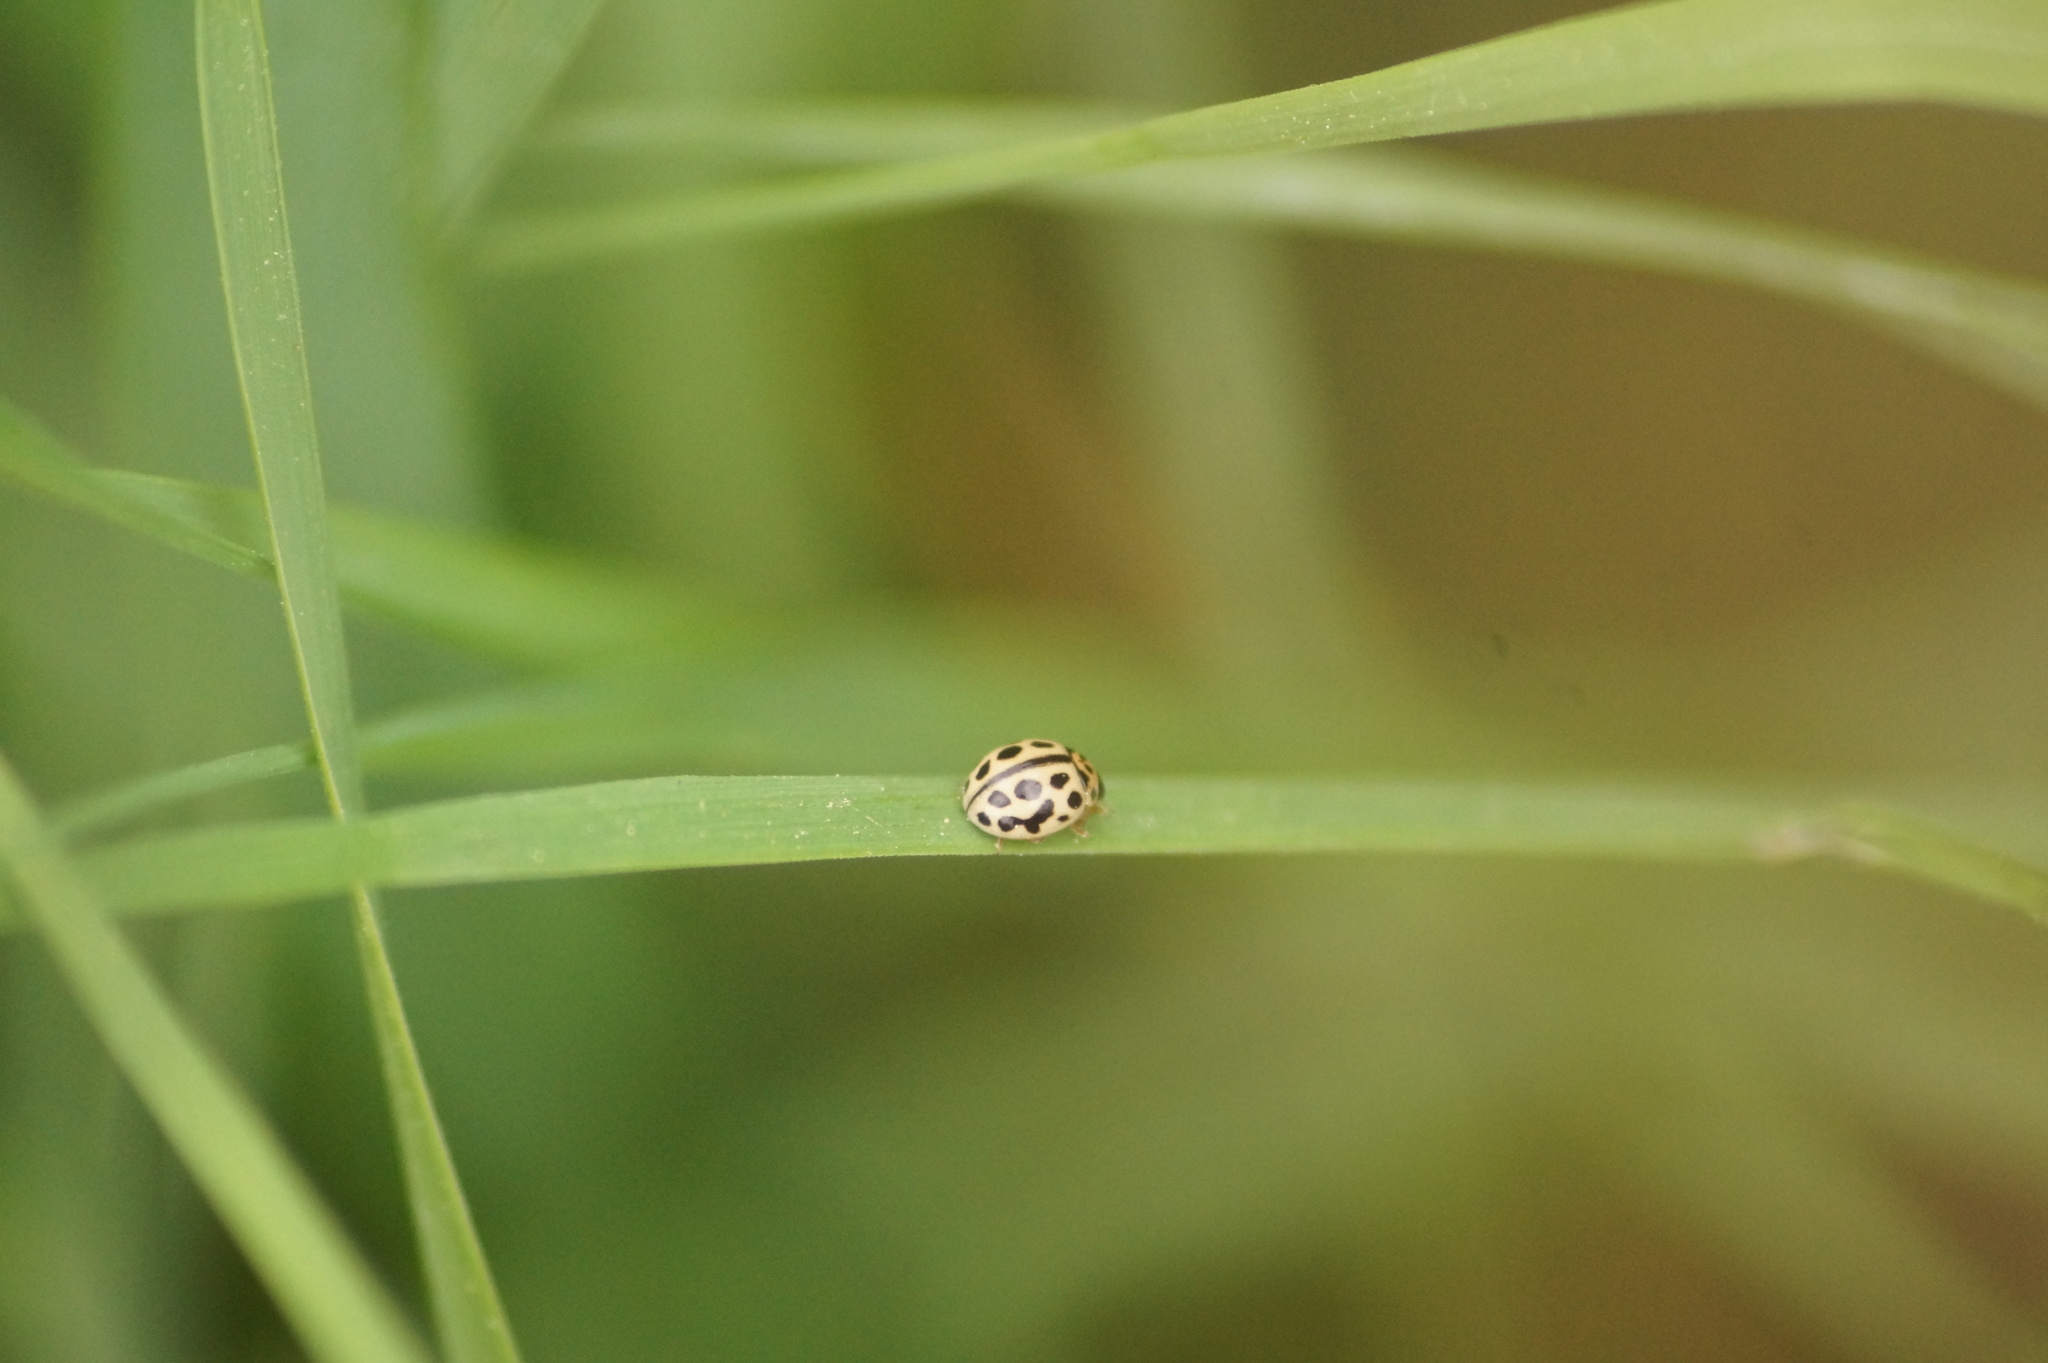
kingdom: Animalia
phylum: Arthropoda
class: Insecta
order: Coleoptera
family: Coccinellidae
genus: Tytthaspis
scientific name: Tytthaspis sedecimpunctata
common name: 16-spot ladybird
